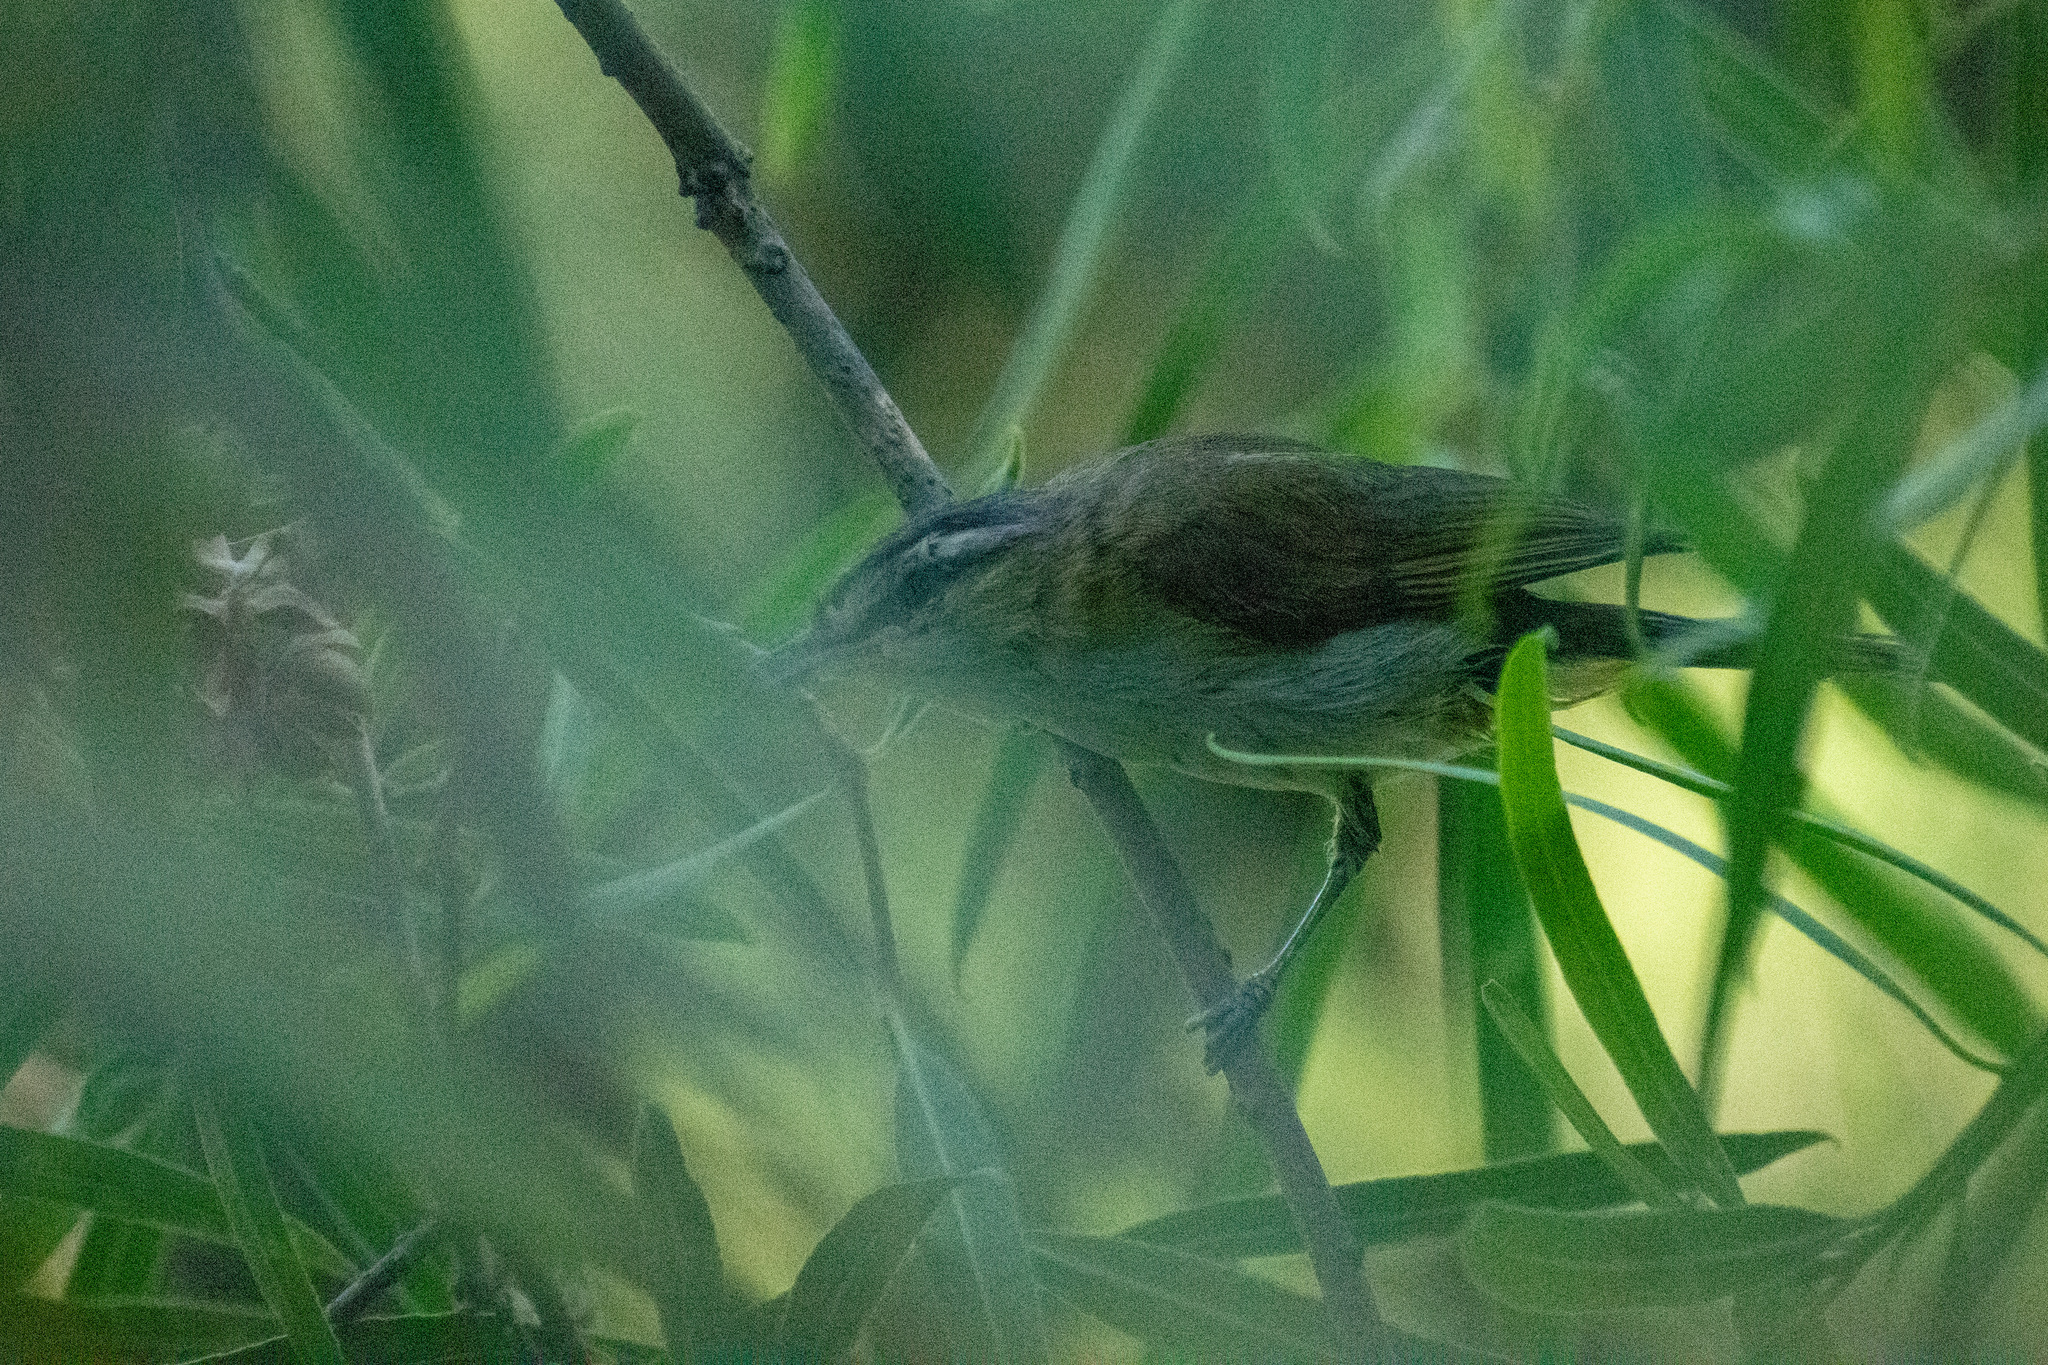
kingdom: Animalia
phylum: Chordata
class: Aves
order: Passeriformes
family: Vireonidae
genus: Vireo
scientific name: Vireo olivaceus
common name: Red-eyed vireo
